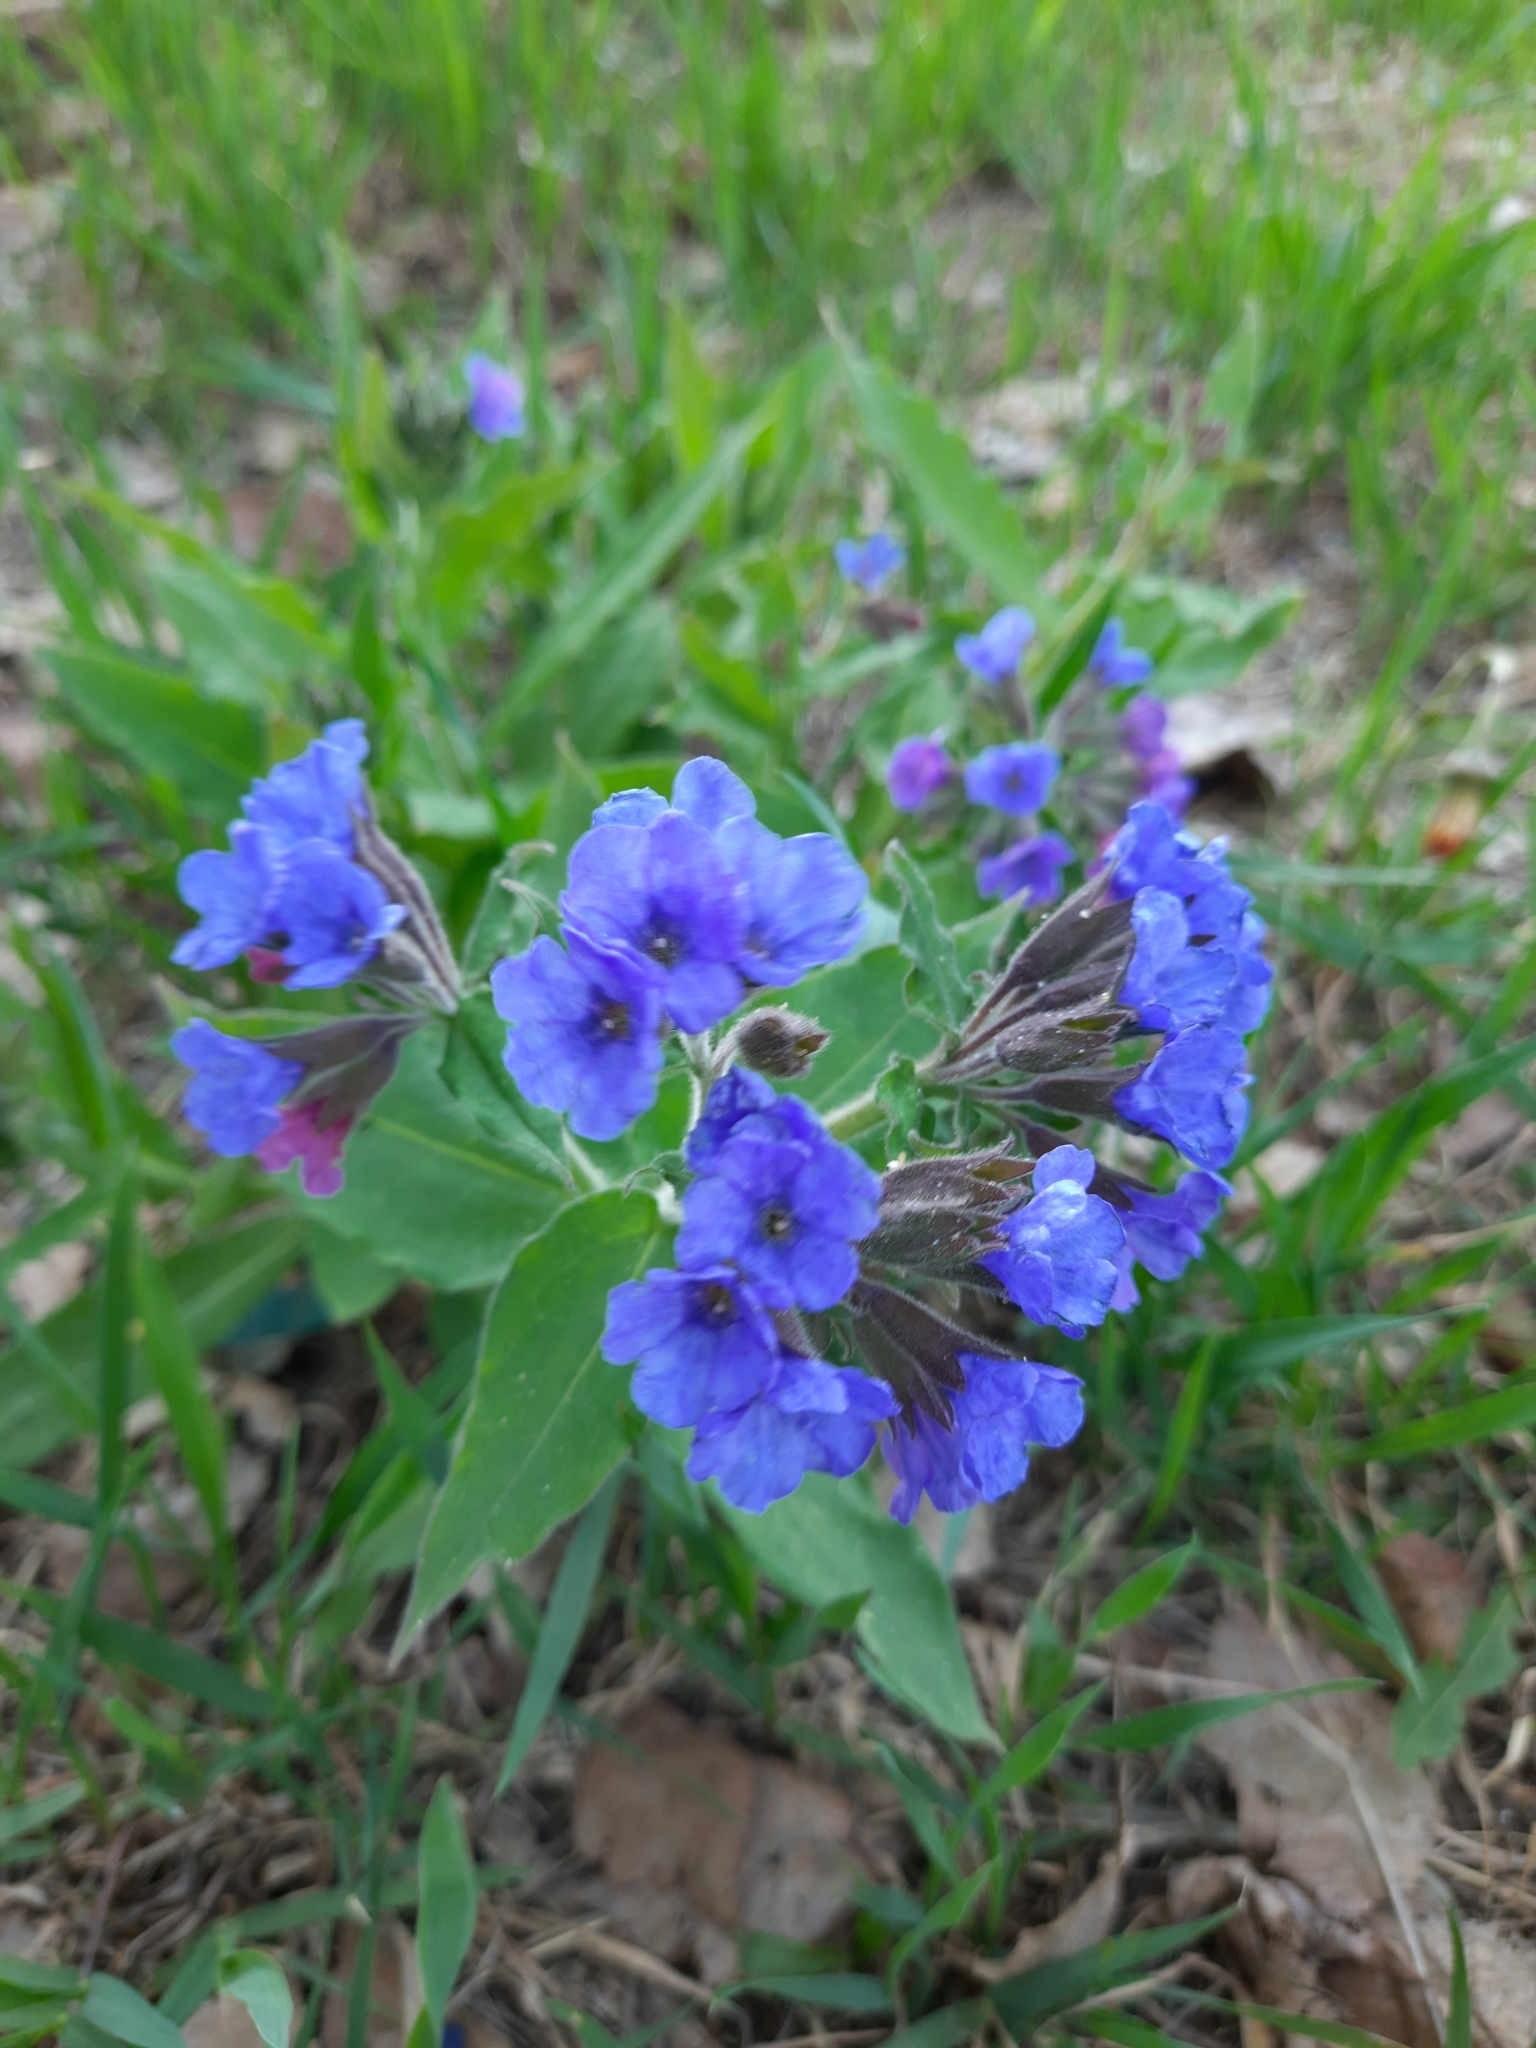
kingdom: Plantae
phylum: Tracheophyta
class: Magnoliopsida
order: Boraginales
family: Boraginaceae
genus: Pulmonaria
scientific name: Pulmonaria mollis
